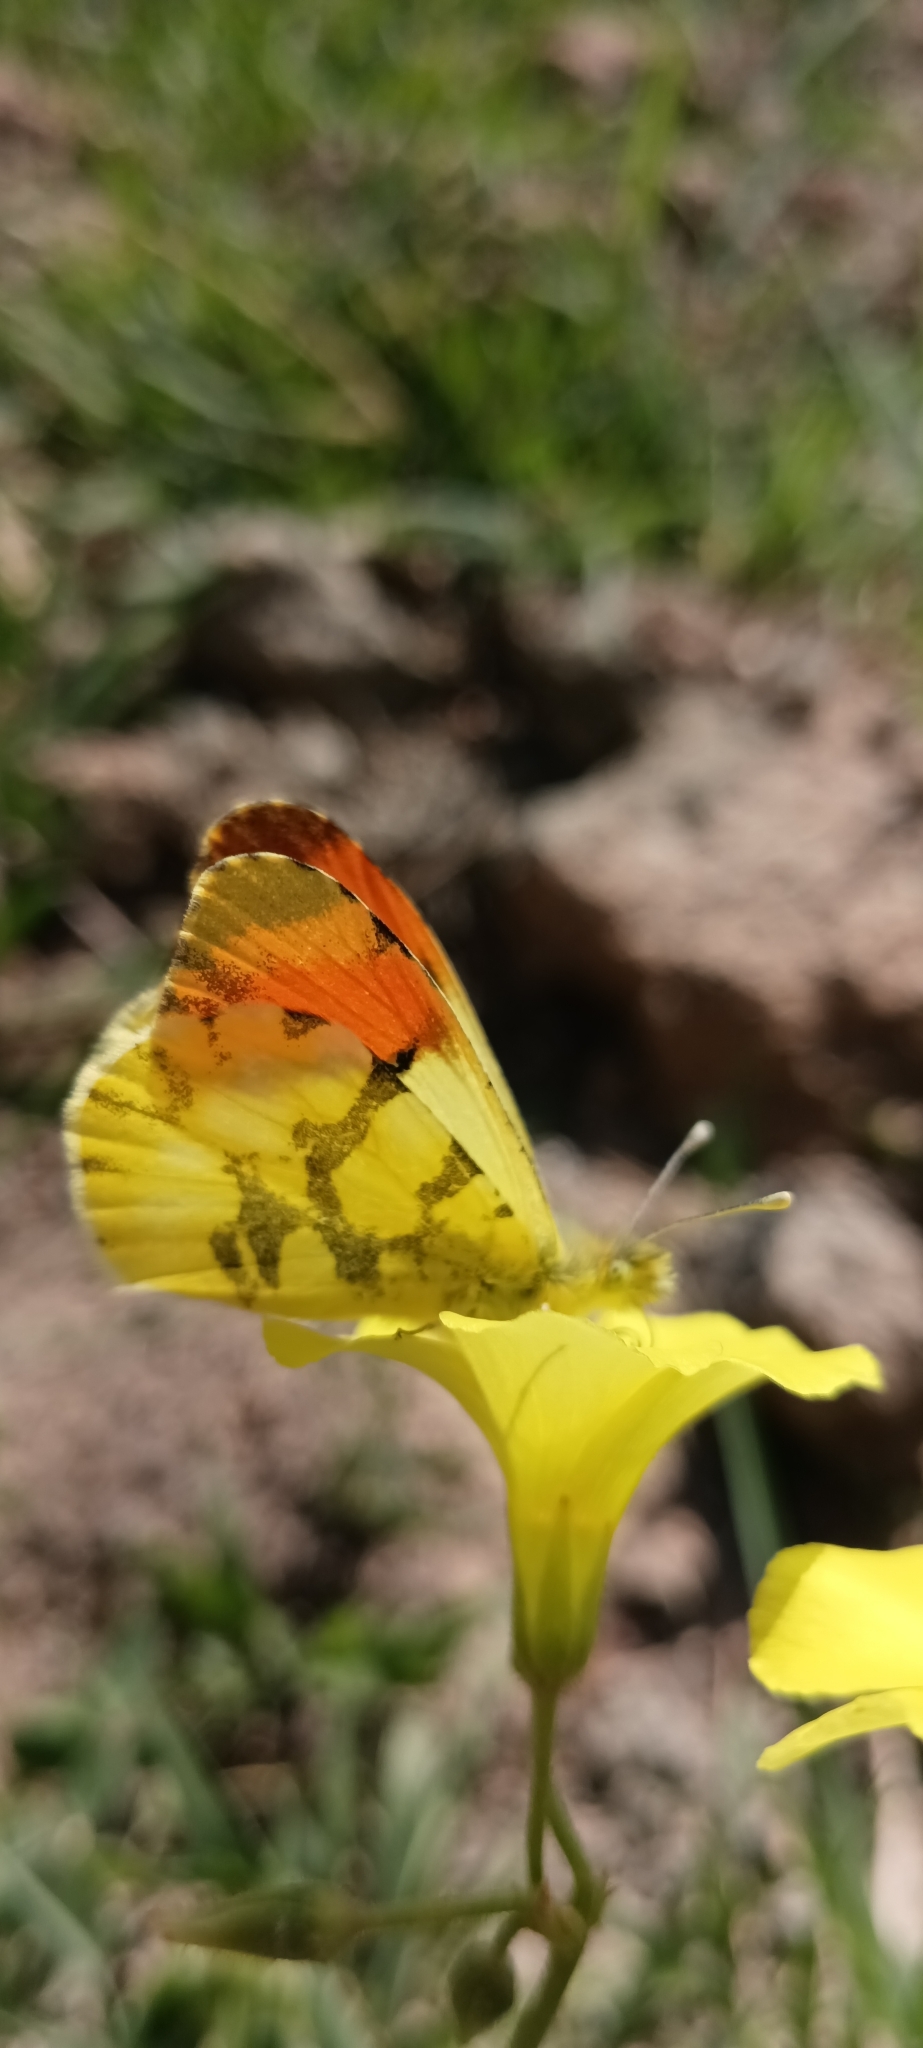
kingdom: Animalia
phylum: Arthropoda
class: Insecta
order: Lepidoptera
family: Pieridae
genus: Anthocharis
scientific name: Anthocharis euphenoides
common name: Provence orange-tip
